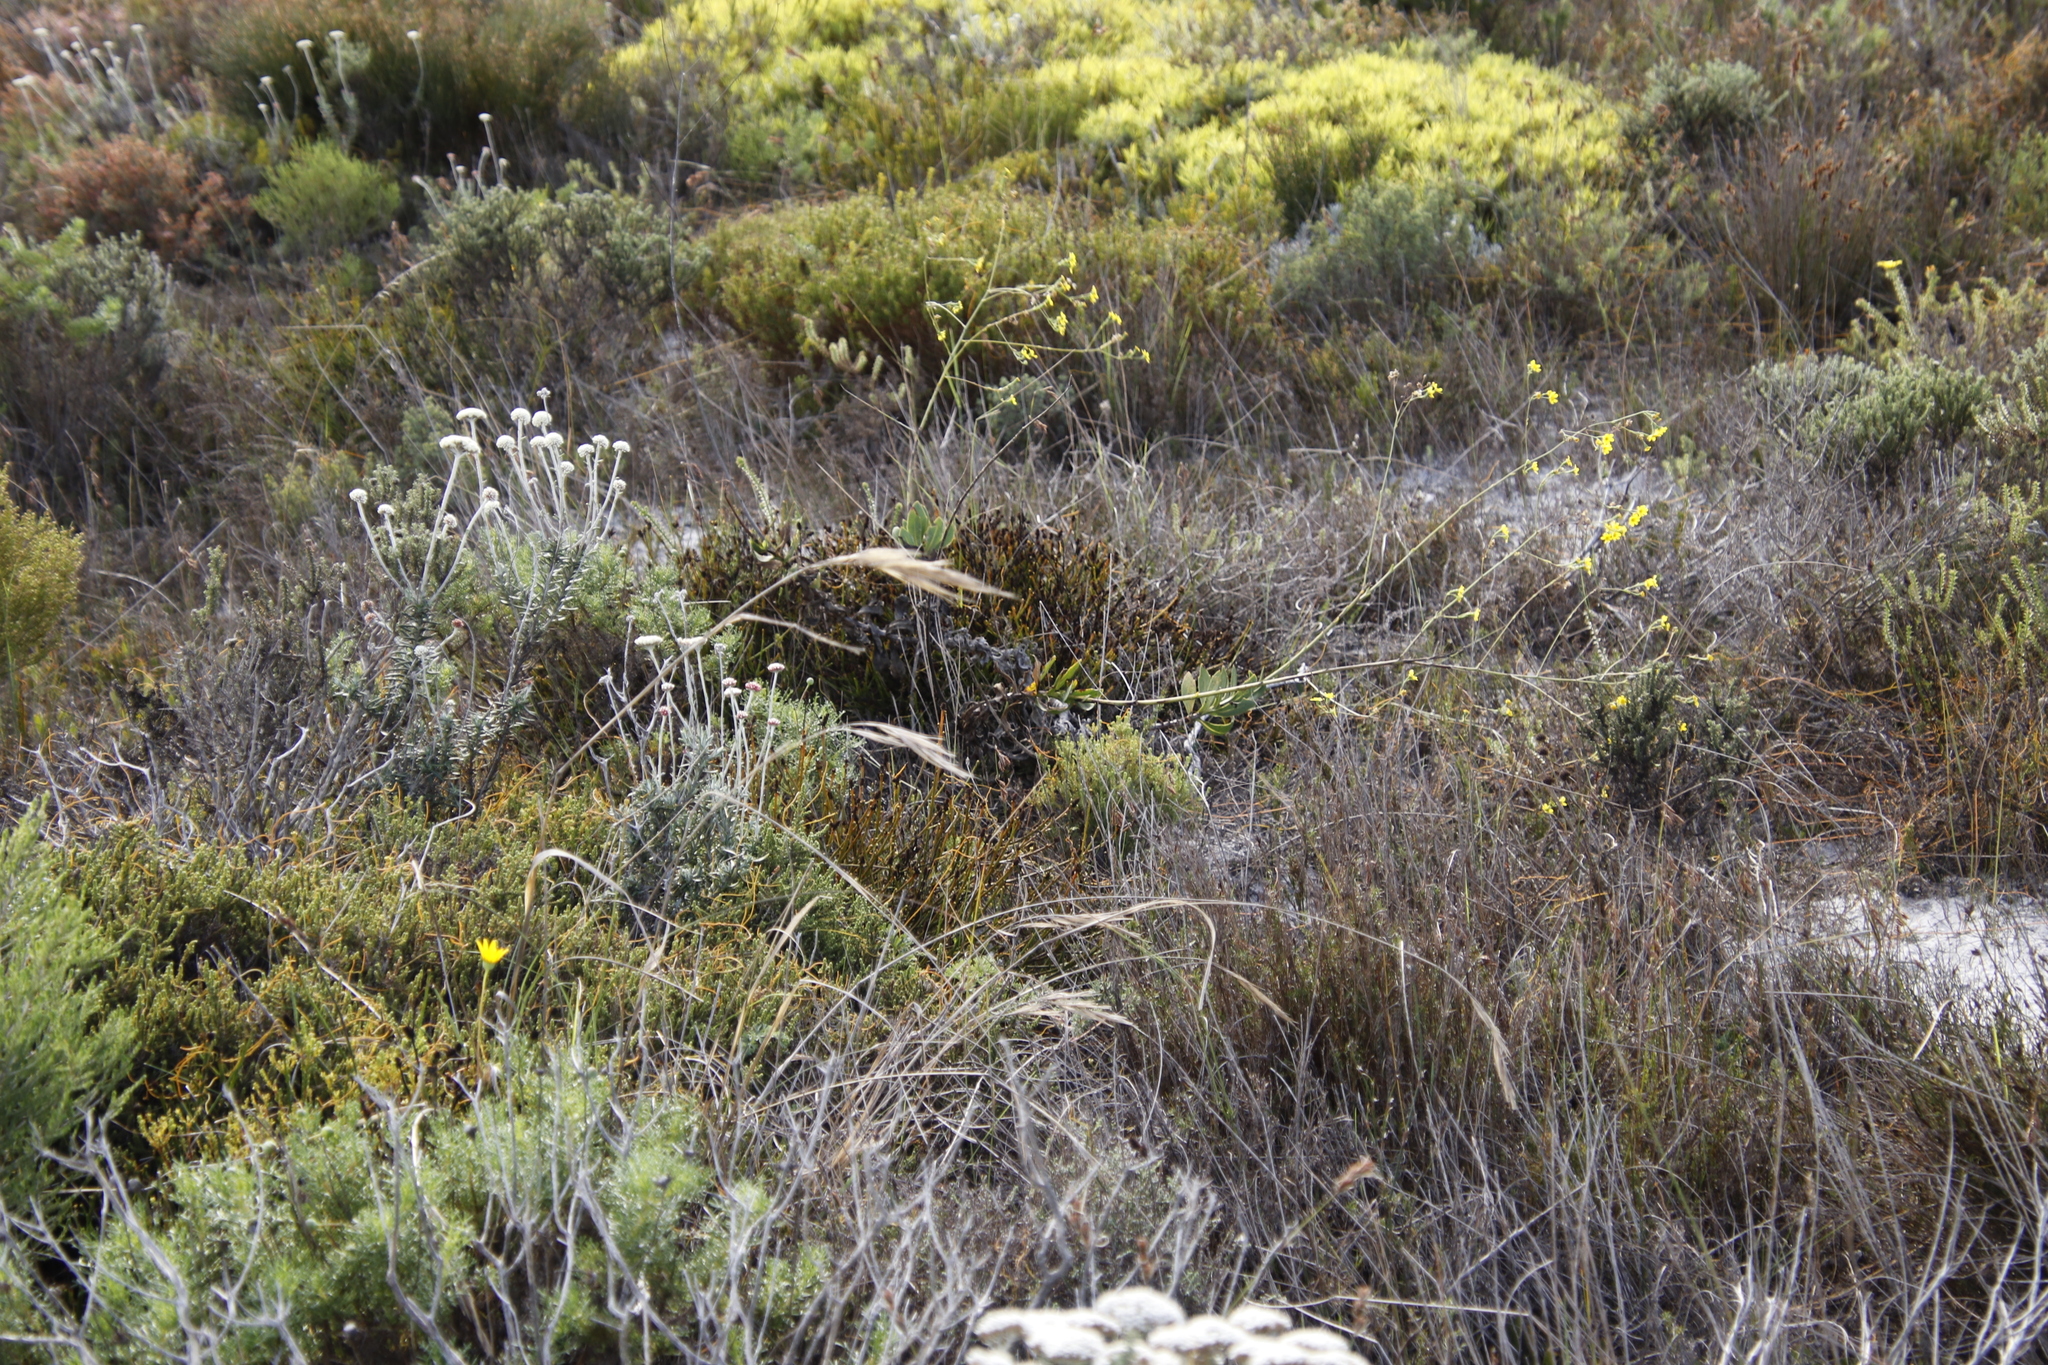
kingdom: Plantae
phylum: Tracheophyta
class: Magnoliopsida
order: Asterales
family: Asteraceae
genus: Othonna
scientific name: Othonna quinquedentata
